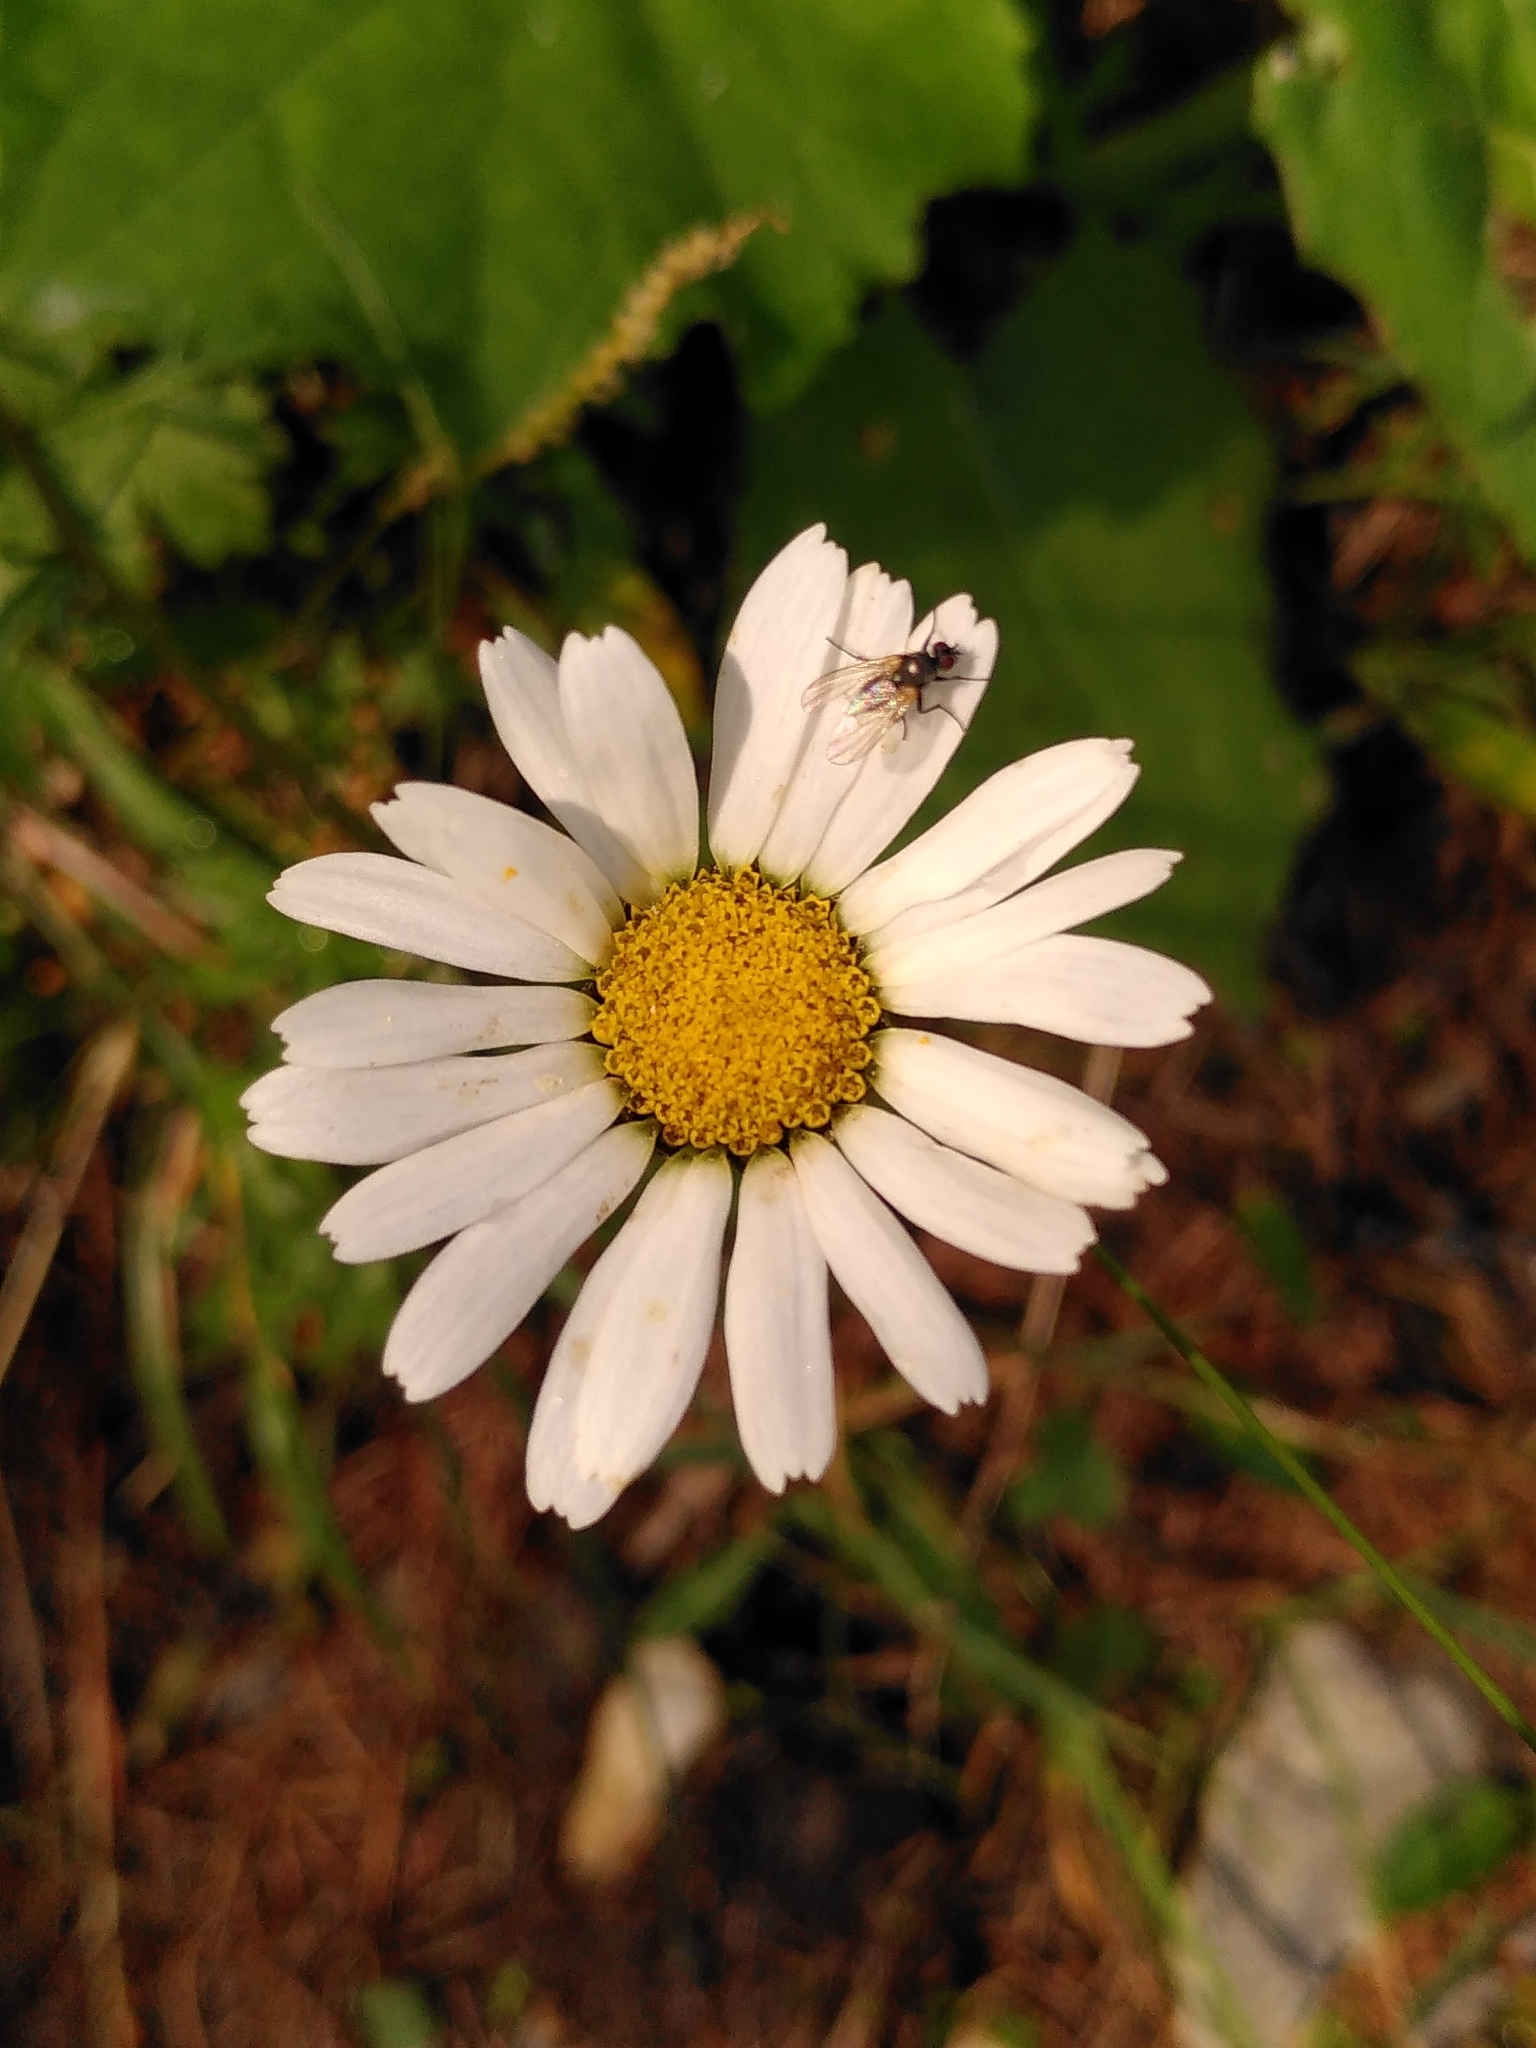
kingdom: Plantae
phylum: Tracheophyta
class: Magnoliopsida
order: Asterales
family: Asteraceae
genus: Leucanthemopsis
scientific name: Leucanthemopsis alpina
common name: Alpine moon daisy
